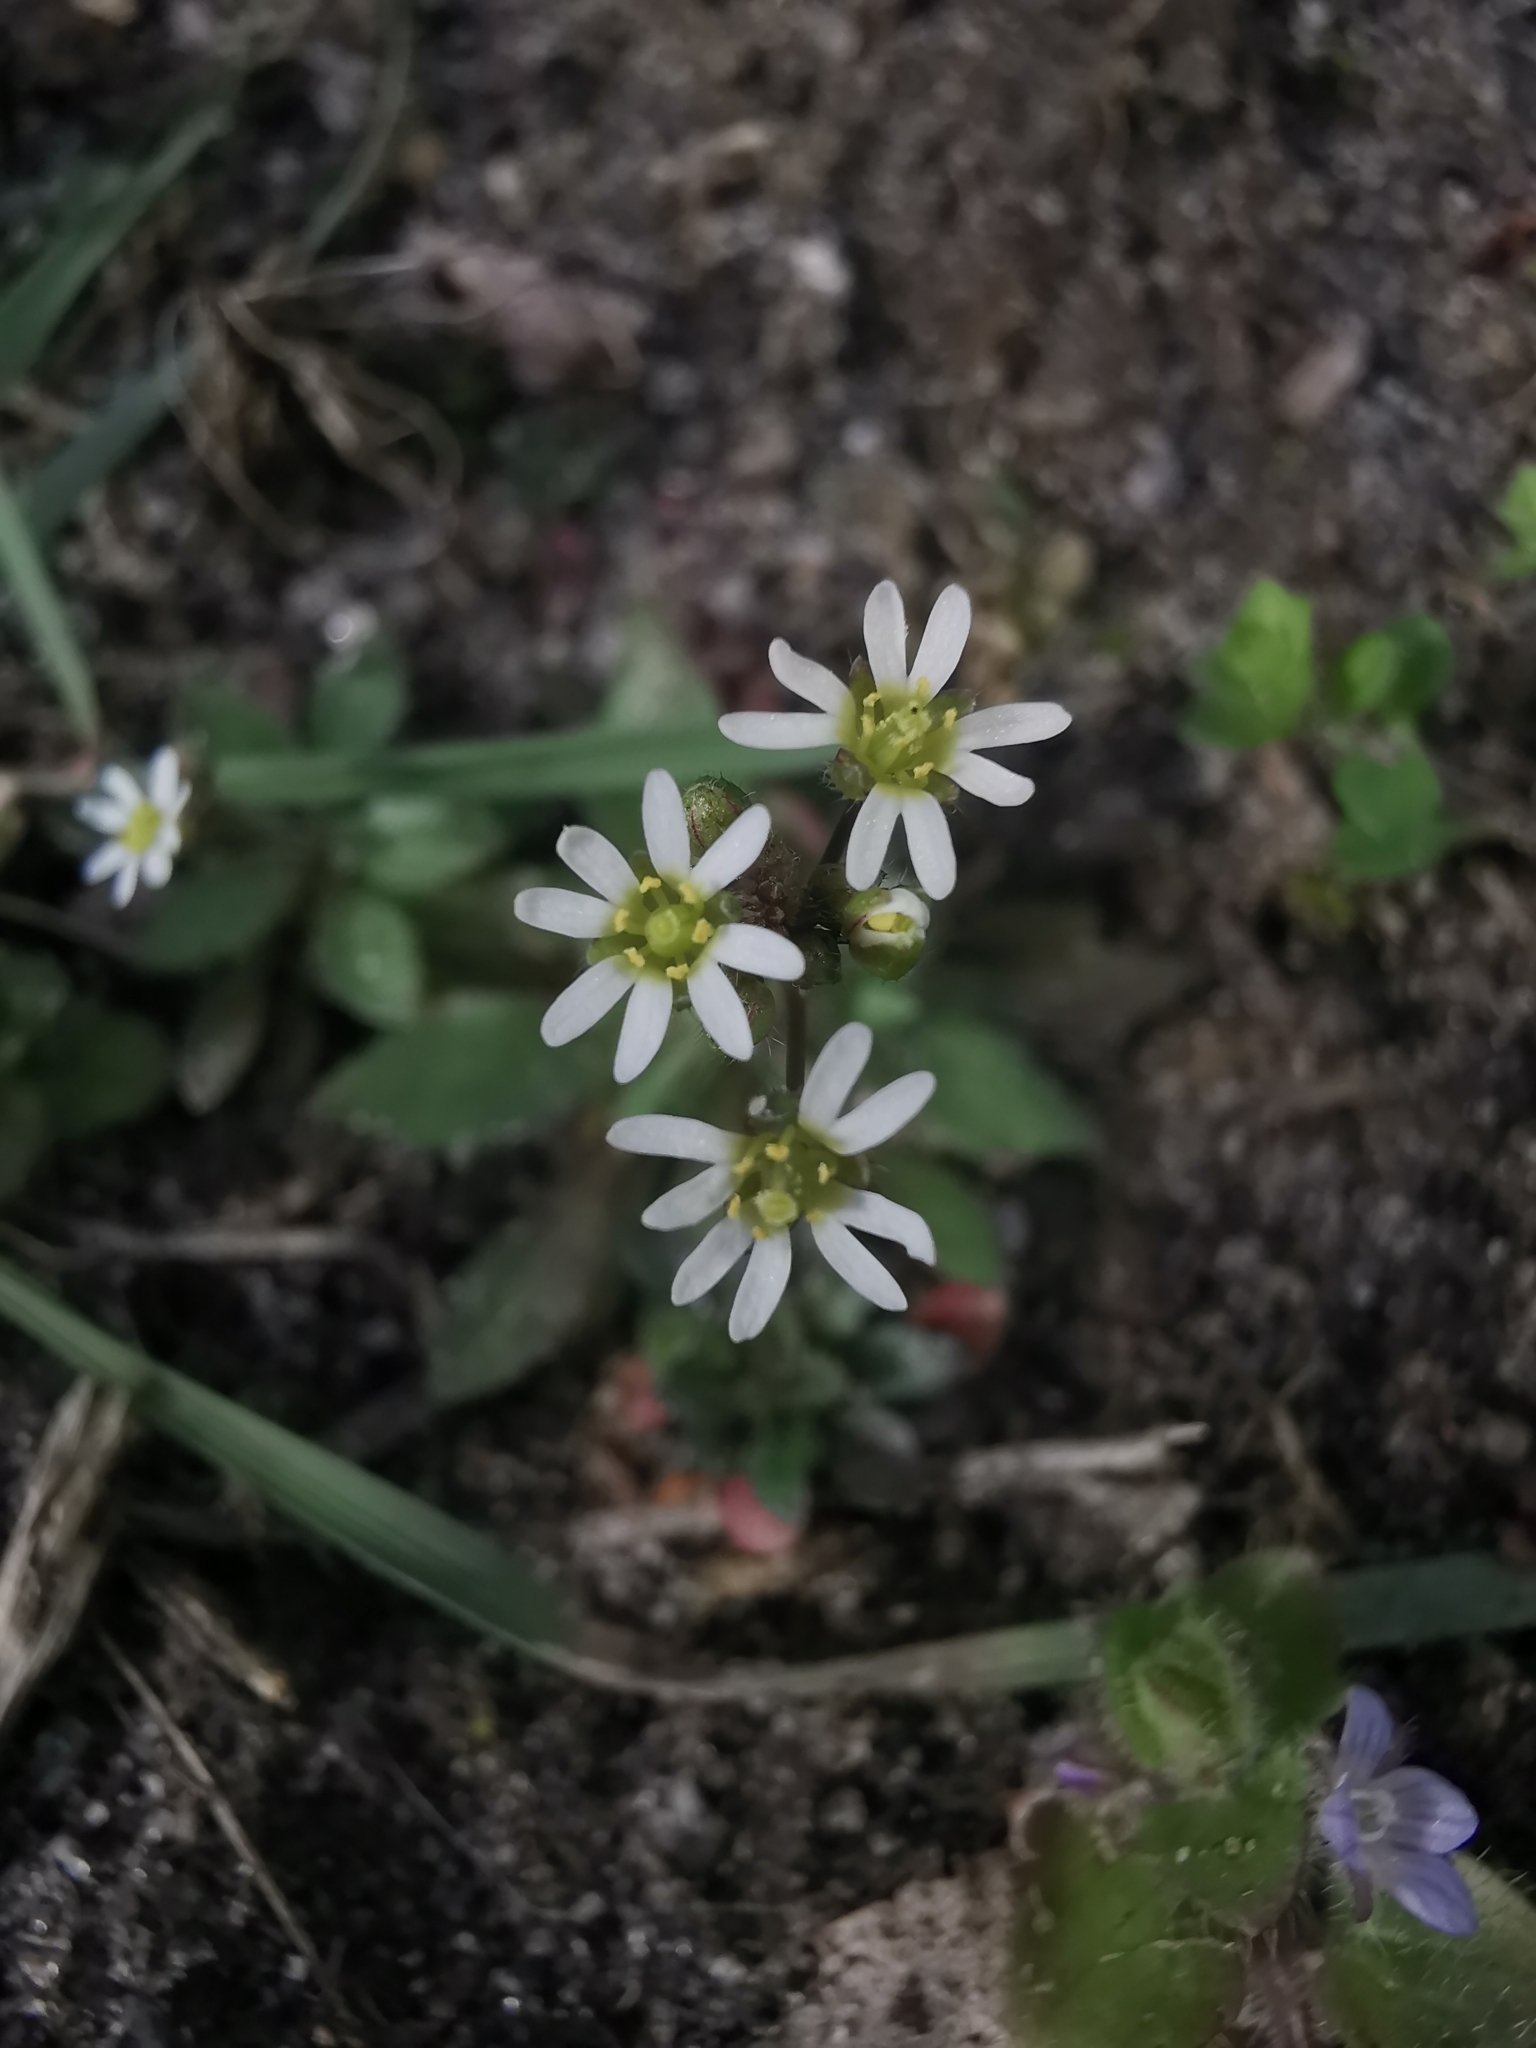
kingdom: Plantae
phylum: Tracheophyta
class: Magnoliopsida
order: Brassicales
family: Brassicaceae
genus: Draba
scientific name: Draba verna
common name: Spring draba
